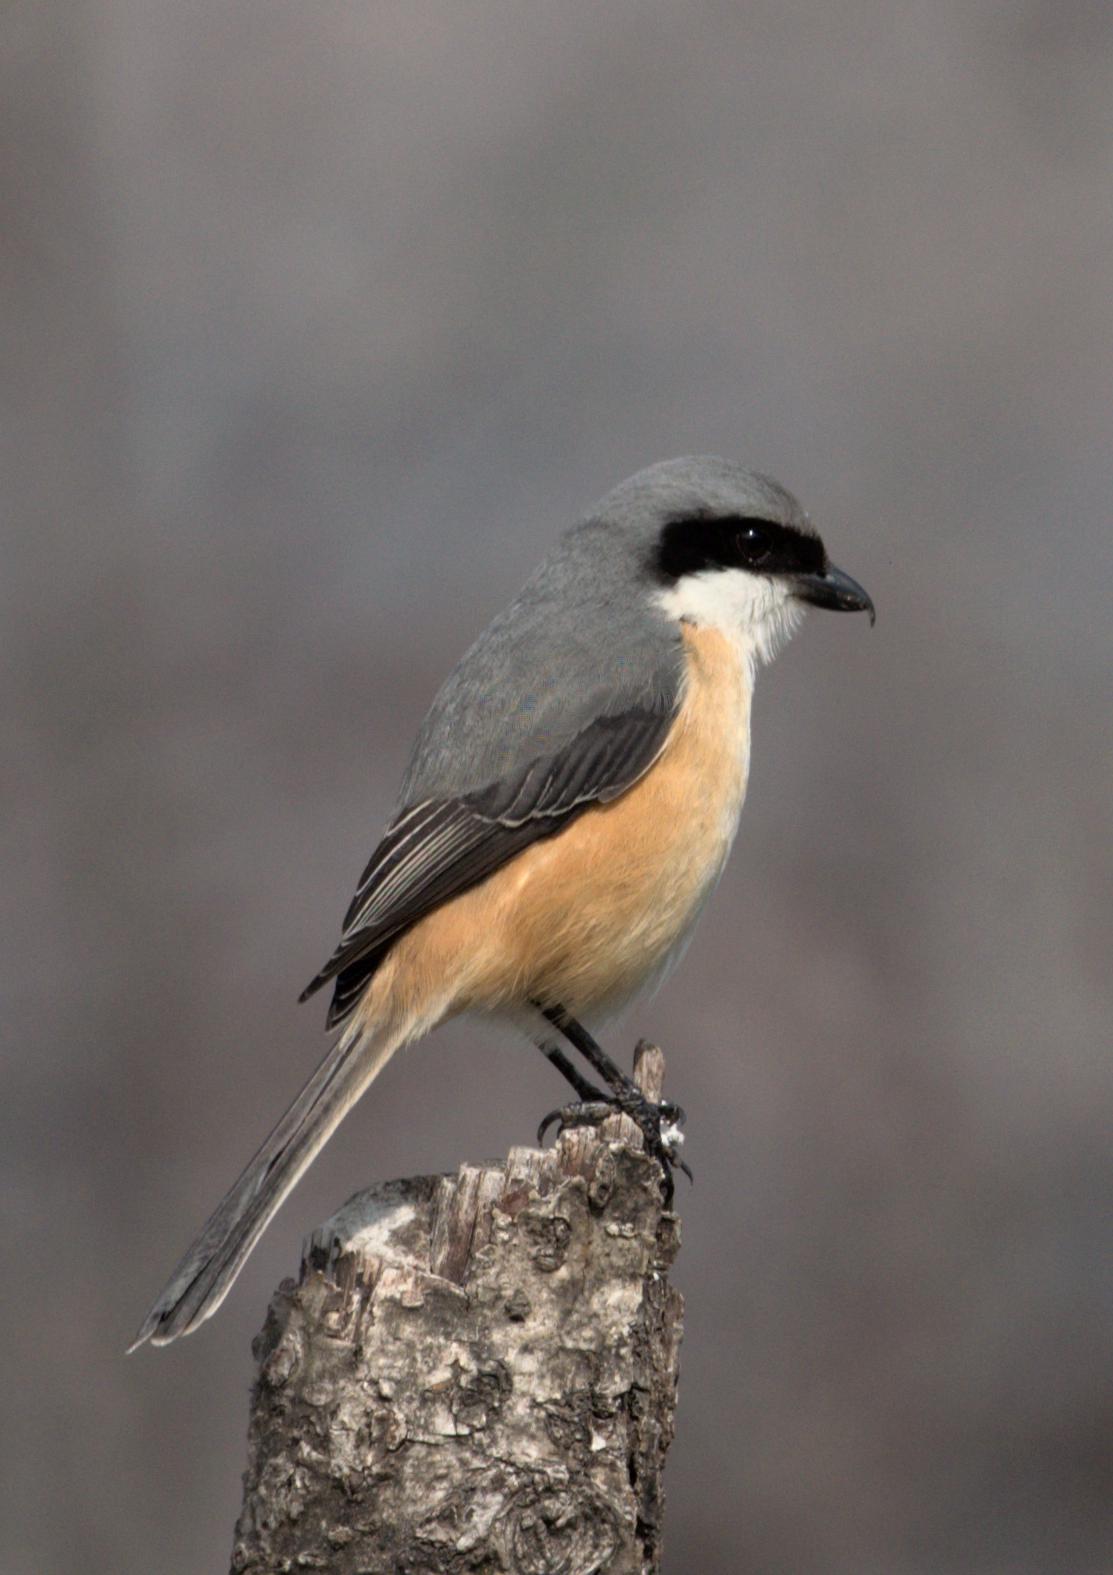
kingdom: Animalia
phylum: Chordata
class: Aves
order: Passeriformes
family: Laniidae
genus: Lanius
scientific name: Lanius schach
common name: Long-tailed shrike
